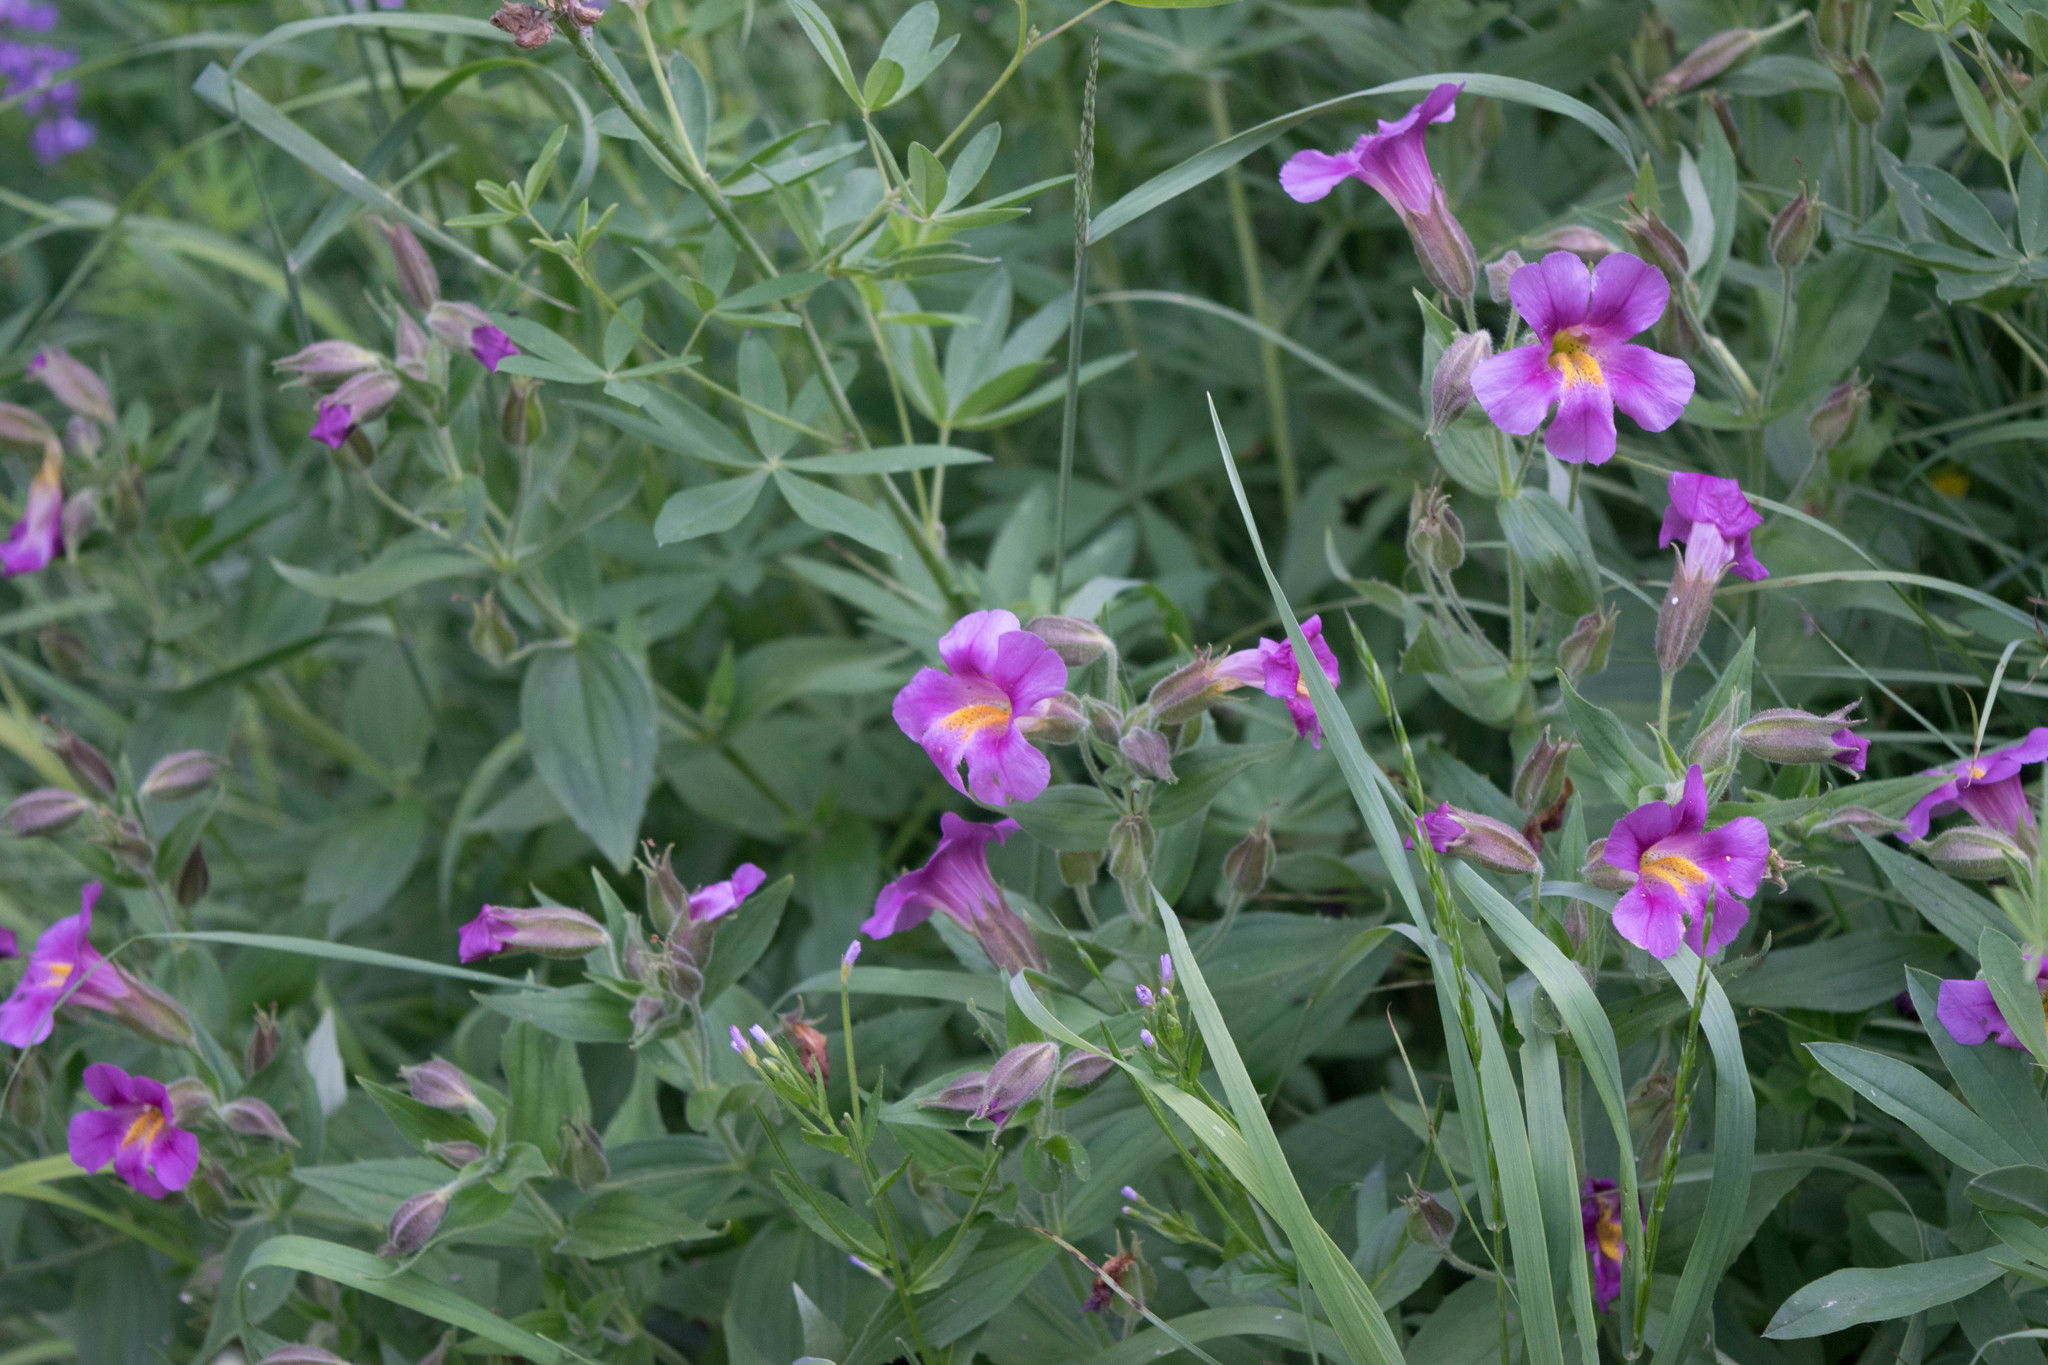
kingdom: Plantae
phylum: Tracheophyta
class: Magnoliopsida
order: Lamiales
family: Phrymaceae
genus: Erythranthe
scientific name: Erythranthe lewisii
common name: Lewis's monkey-flower
